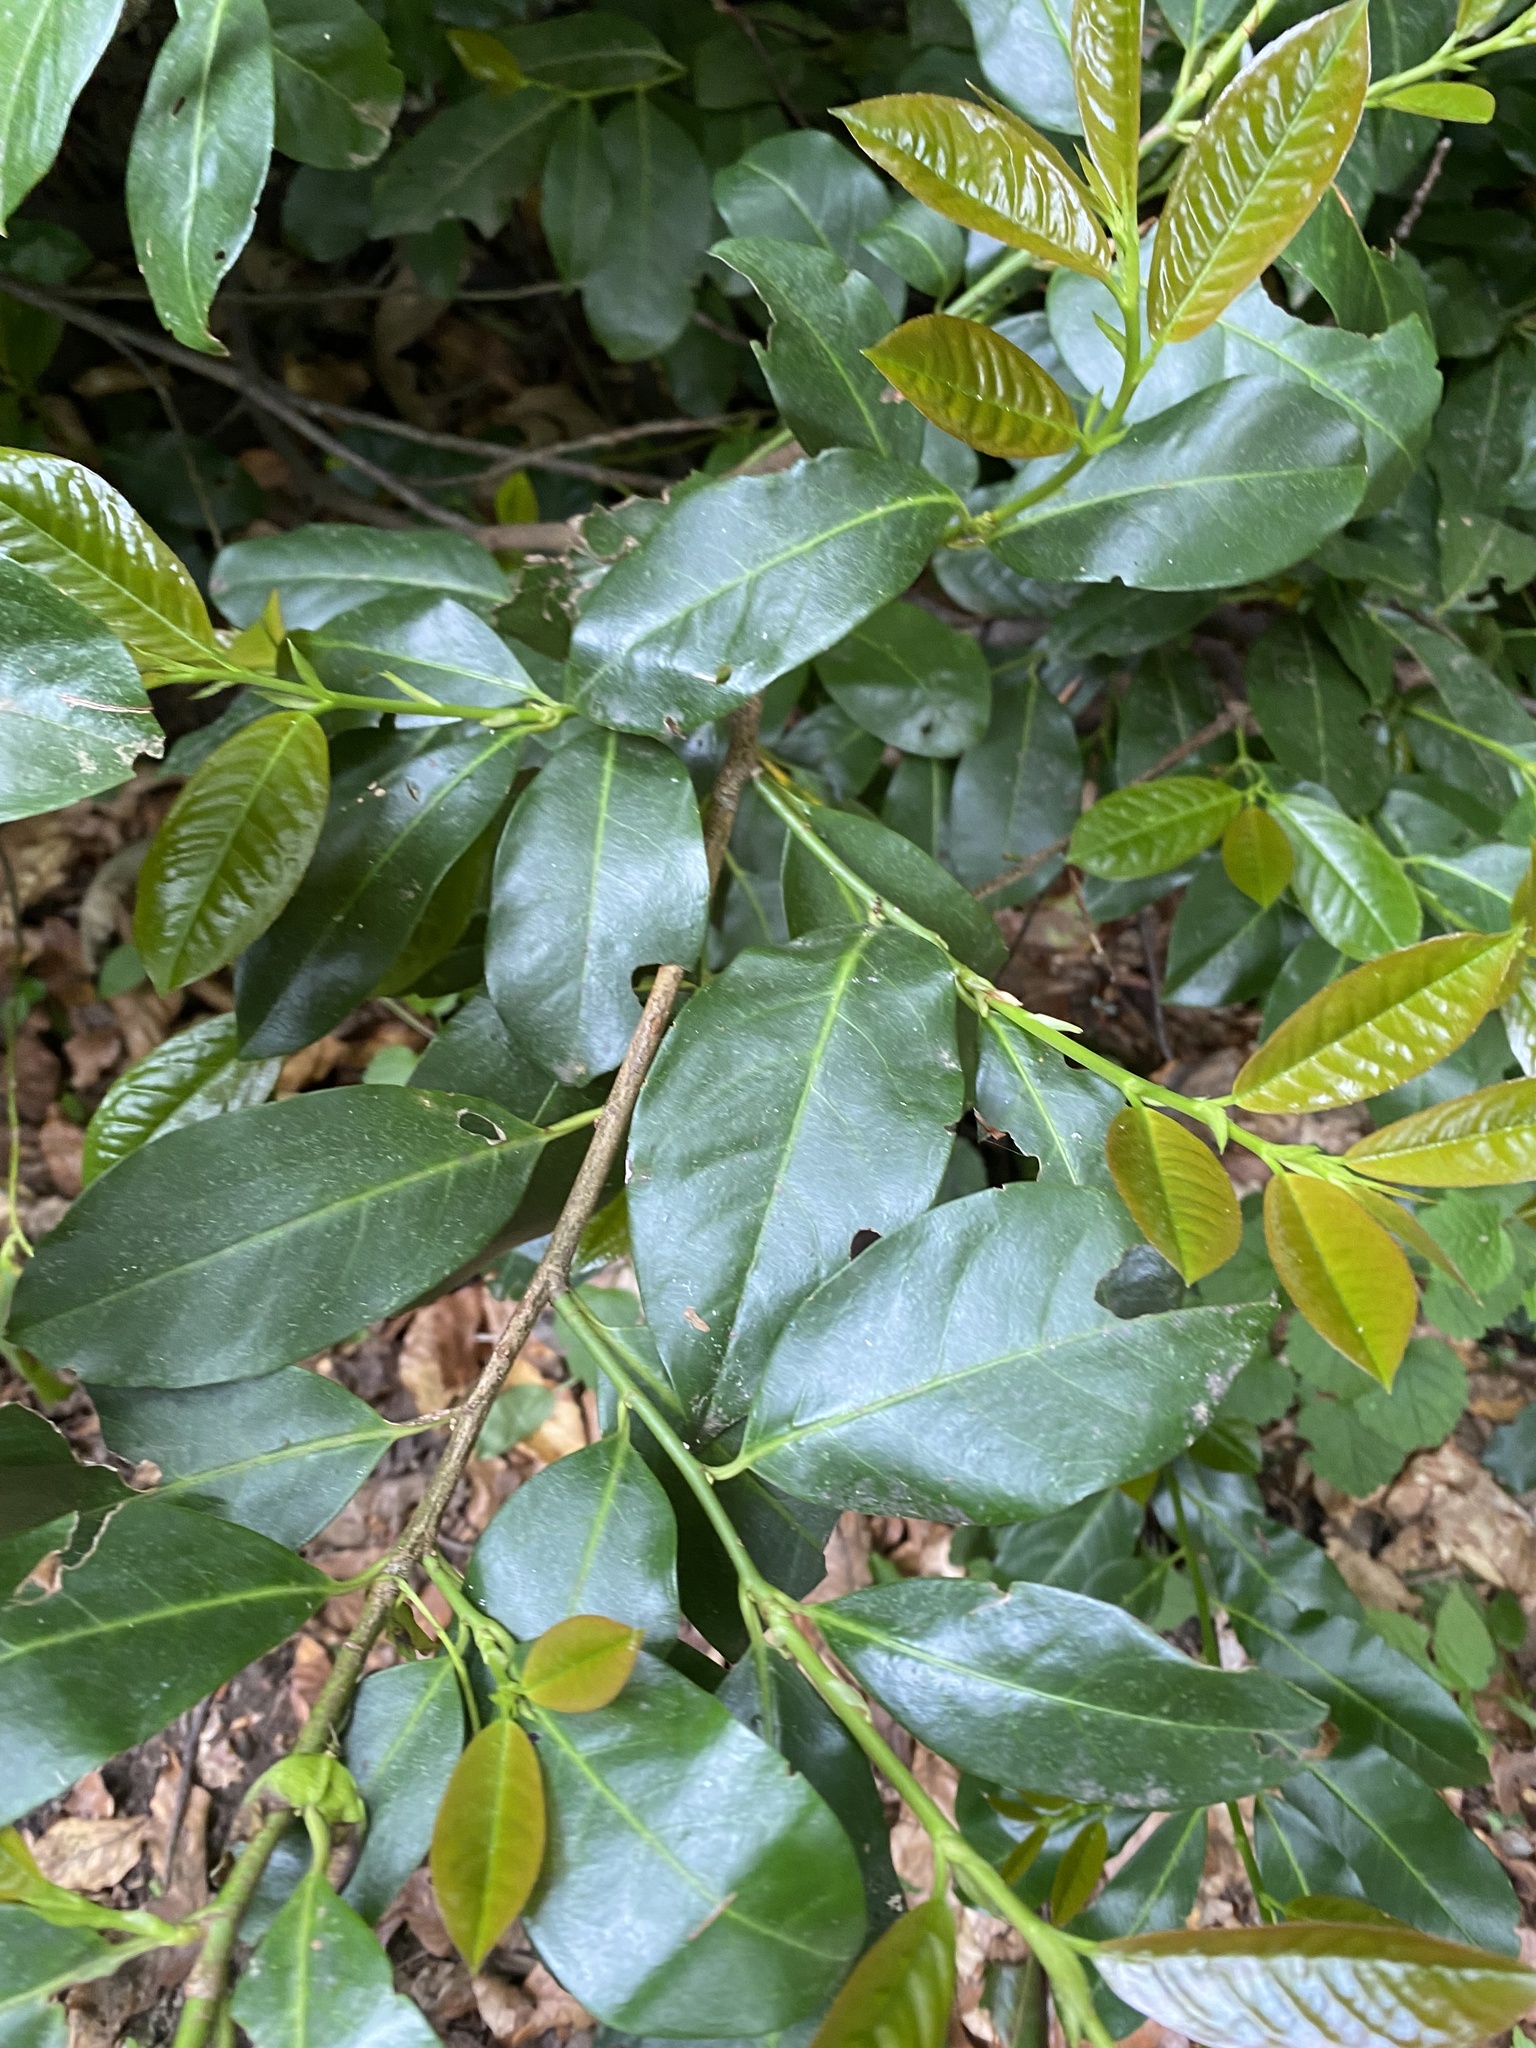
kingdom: Plantae
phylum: Tracheophyta
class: Magnoliopsida
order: Rosales
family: Rosaceae
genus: Prunus
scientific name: Prunus laurocerasus
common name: Cherry laurel
